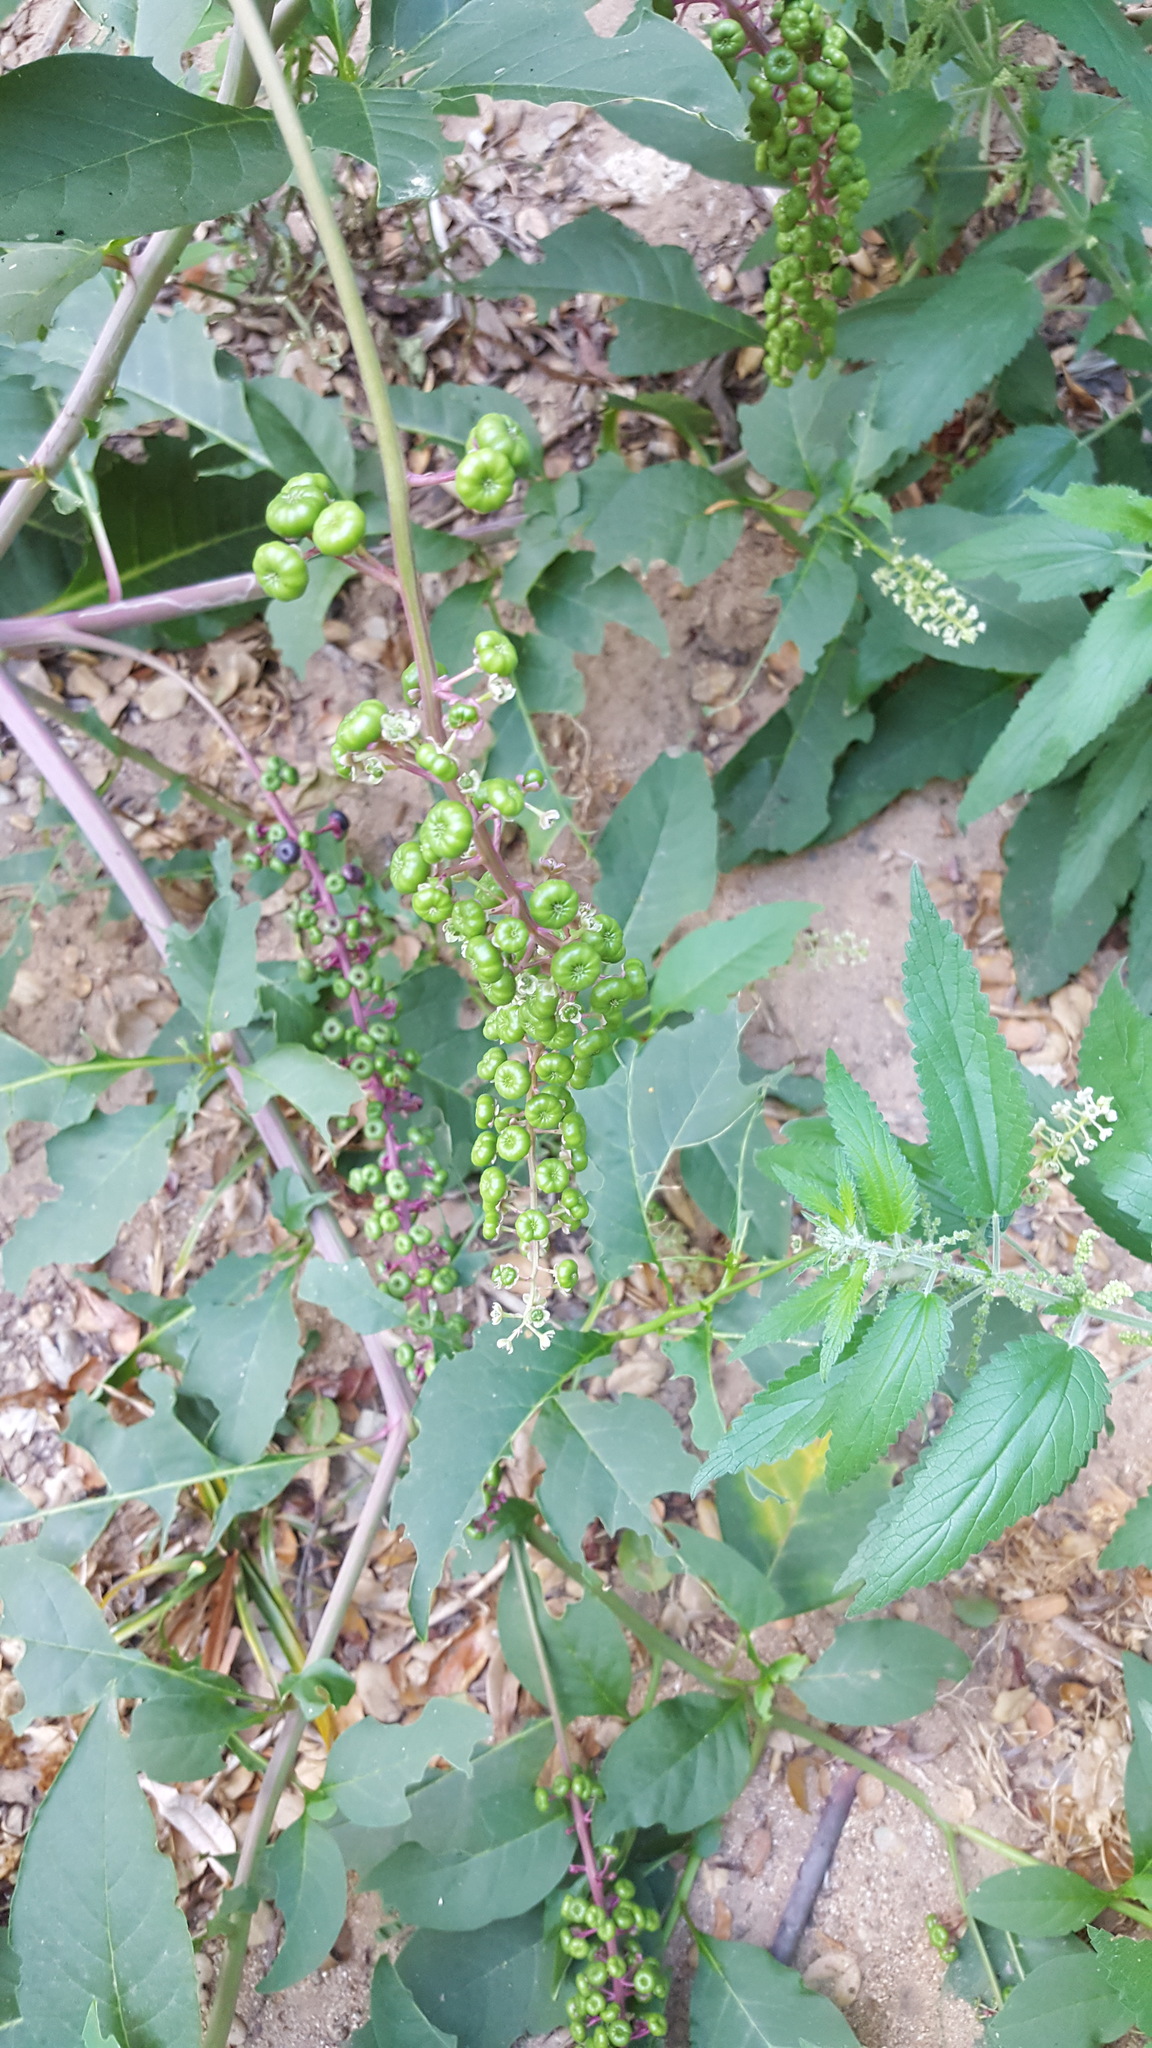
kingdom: Plantae
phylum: Tracheophyta
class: Magnoliopsida
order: Caryophyllales
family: Phytolaccaceae
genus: Phytolacca
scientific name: Phytolacca americana
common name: American pokeweed
